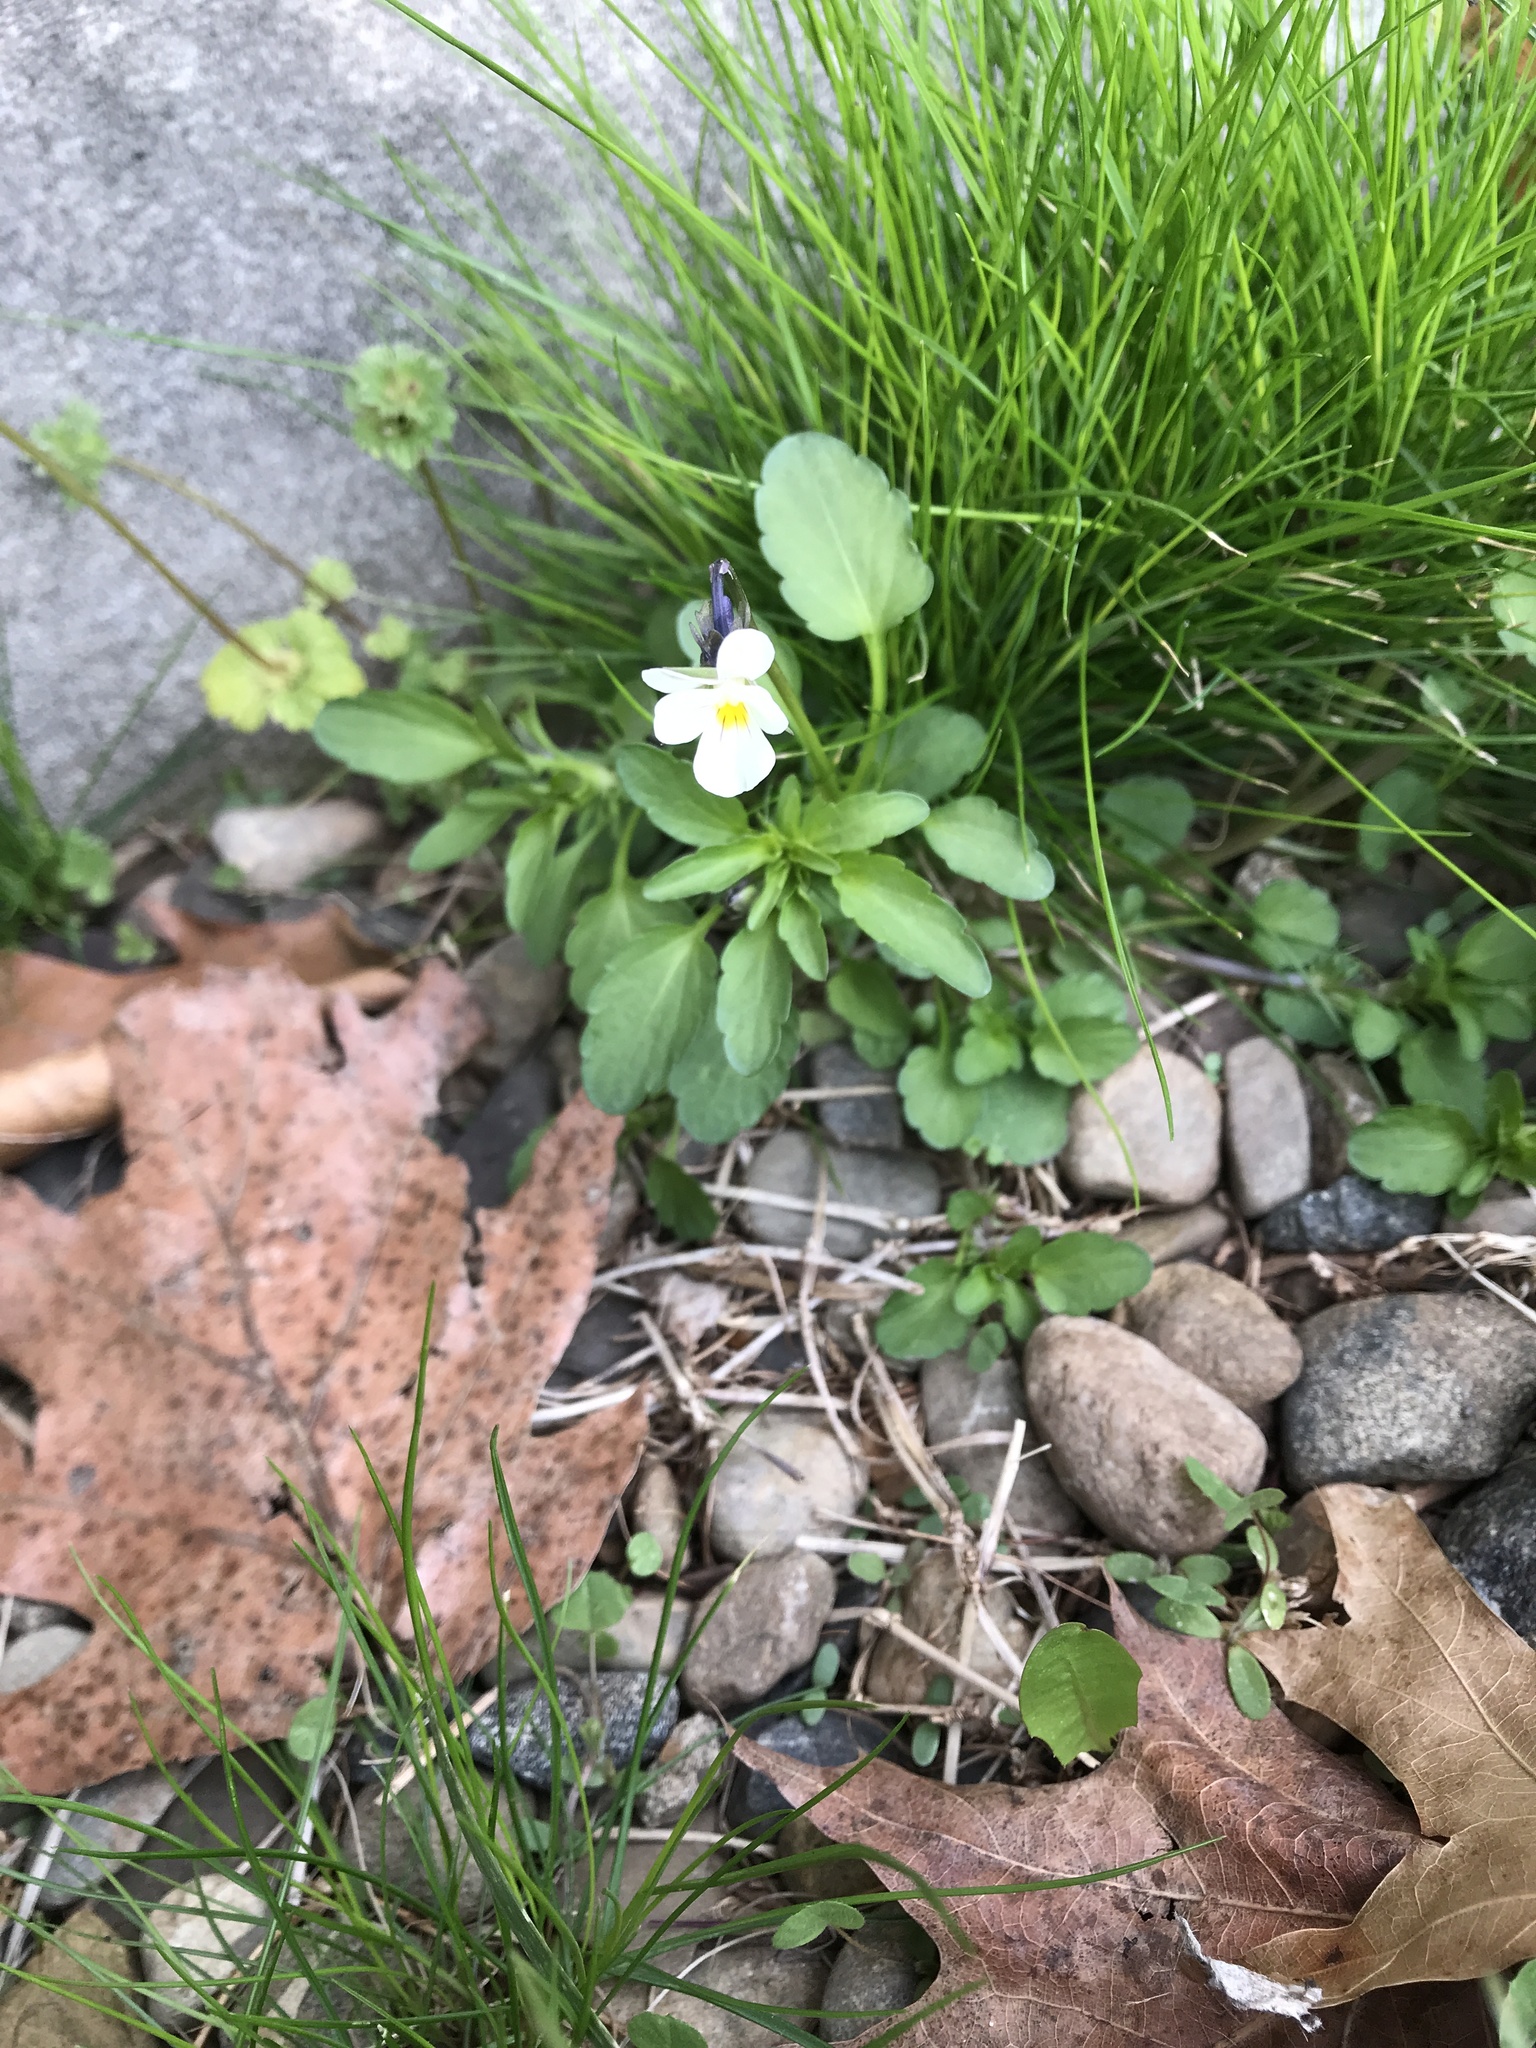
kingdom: Plantae
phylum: Tracheophyta
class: Magnoliopsida
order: Malpighiales
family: Violaceae
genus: Viola
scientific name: Viola arvensis
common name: Field pansy
